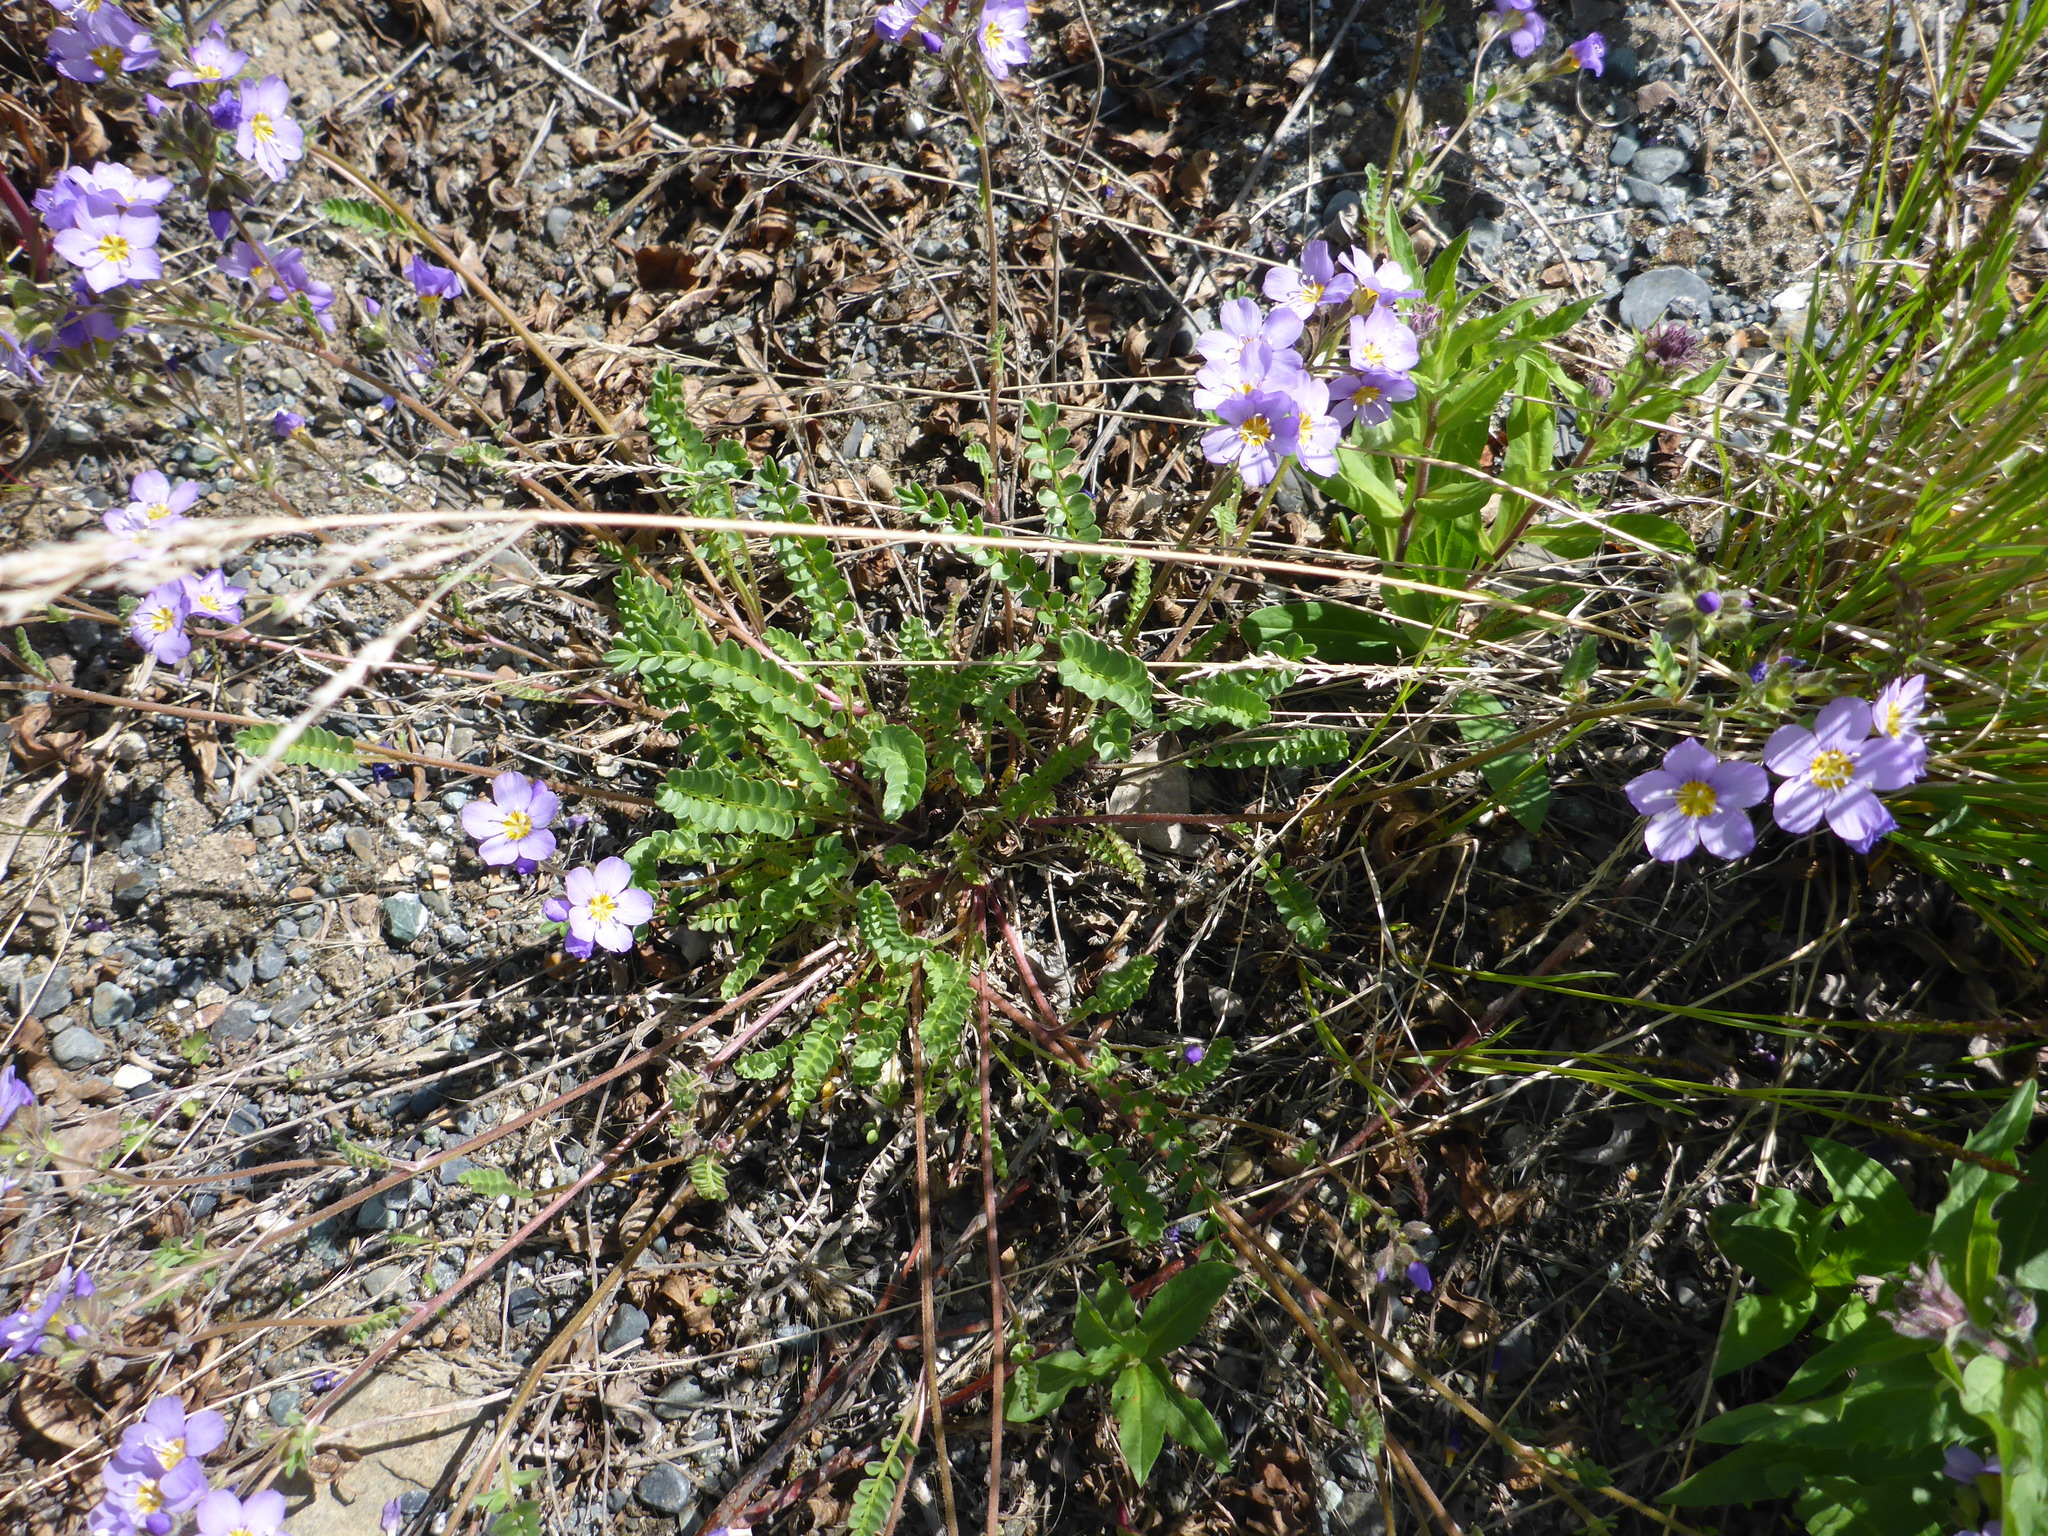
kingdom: Plantae
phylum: Tracheophyta
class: Magnoliopsida
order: Ericales
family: Polemoniaceae
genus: Polemonium
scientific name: Polemonium pulcherrimum
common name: Short jacob's-ladder
